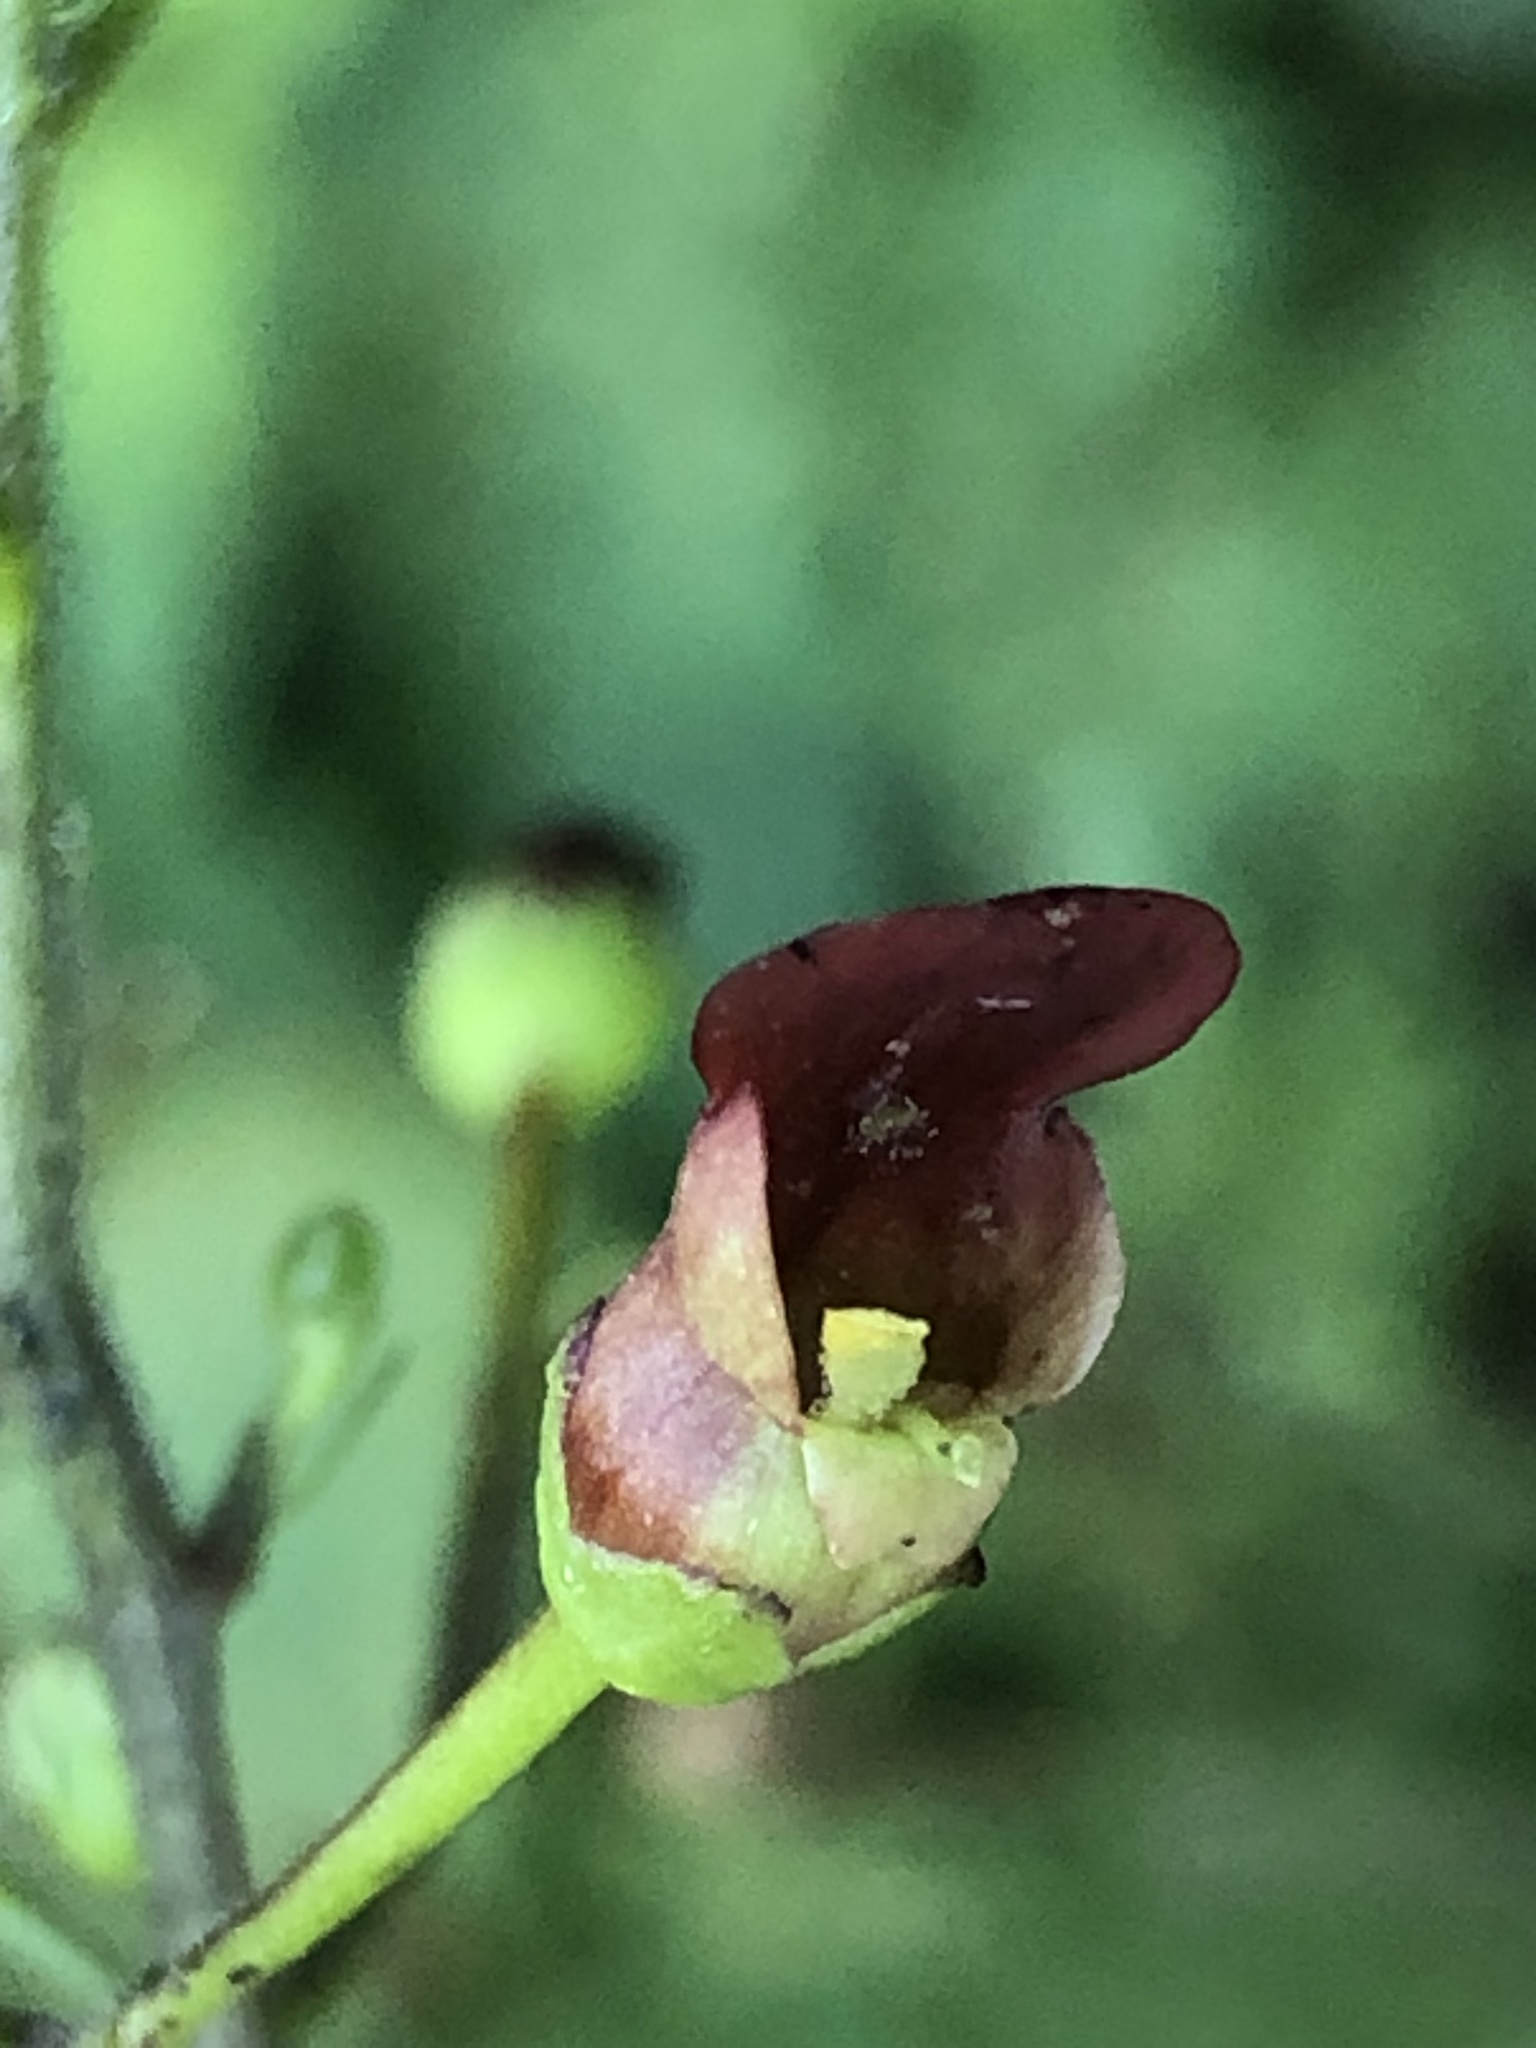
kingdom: Plantae
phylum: Tracheophyta
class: Magnoliopsida
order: Lamiales
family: Scrophulariaceae
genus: Scrophularia
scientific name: Scrophularia californica
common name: California figwort
